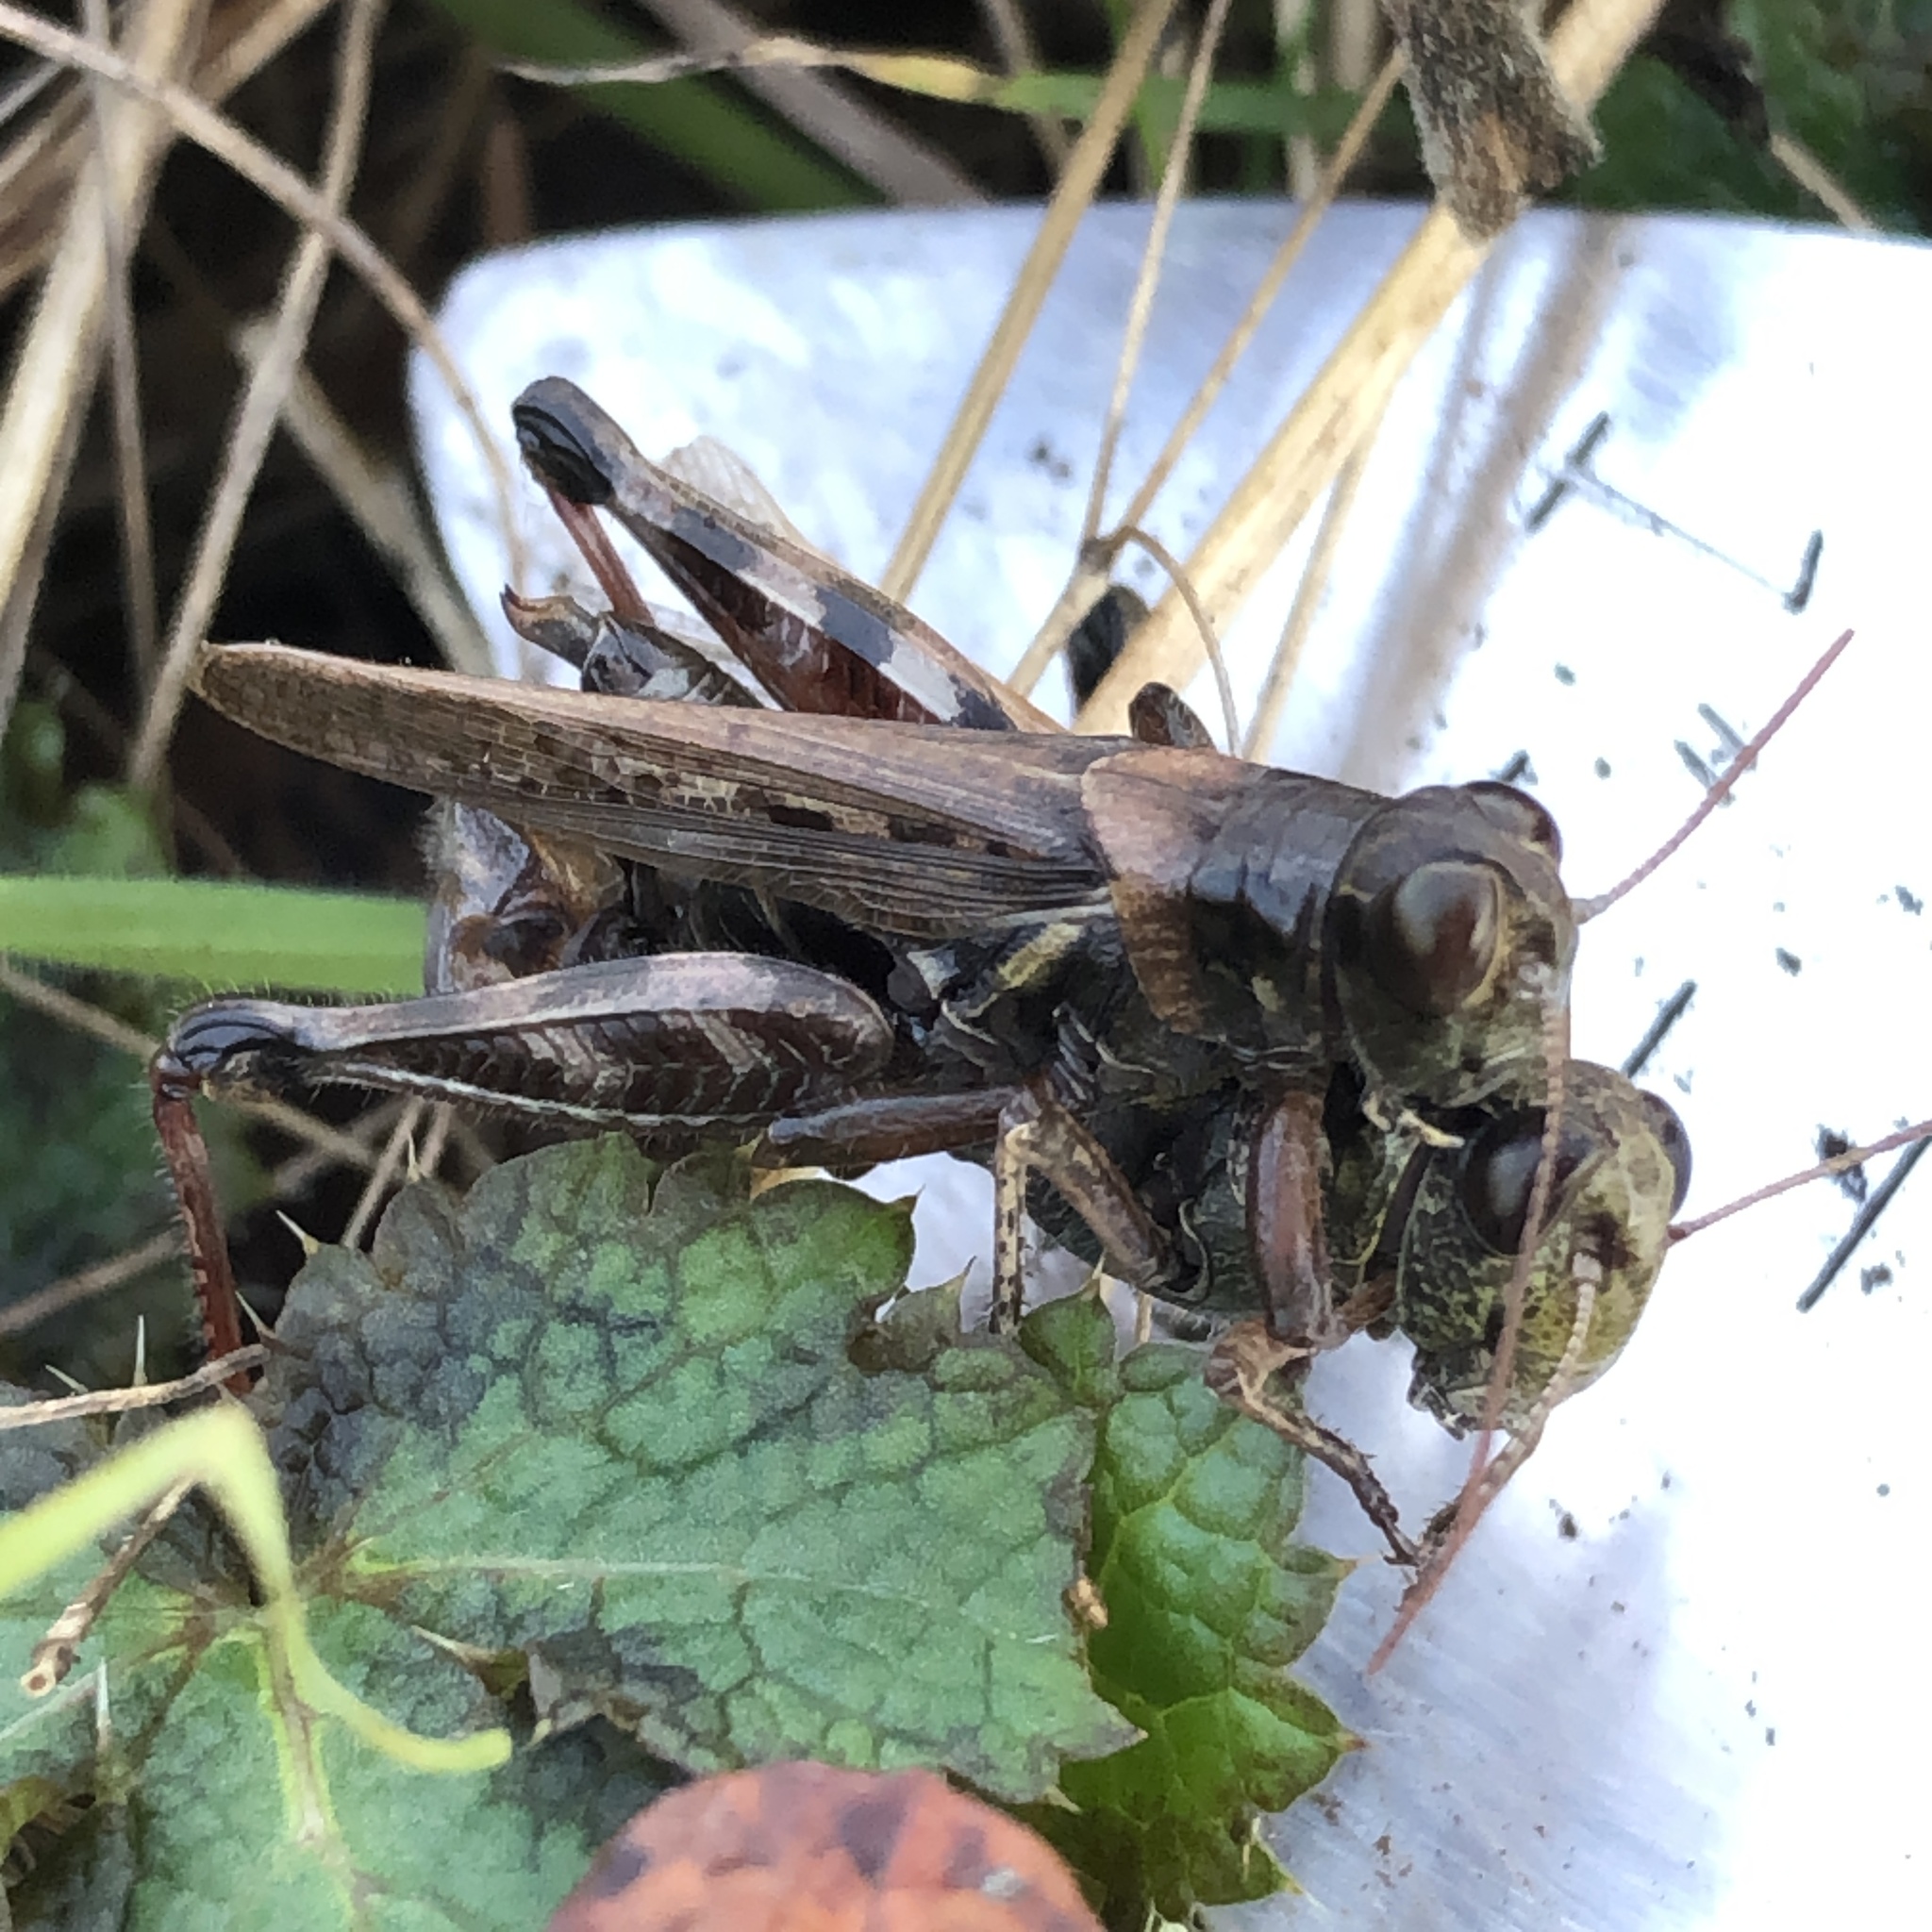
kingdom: Animalia
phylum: Arthropoda
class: Insecta
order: Orthoptera
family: Acrididae
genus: Melanoplus
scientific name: Melanoplus sanguinipes
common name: Migratory grasshopper
